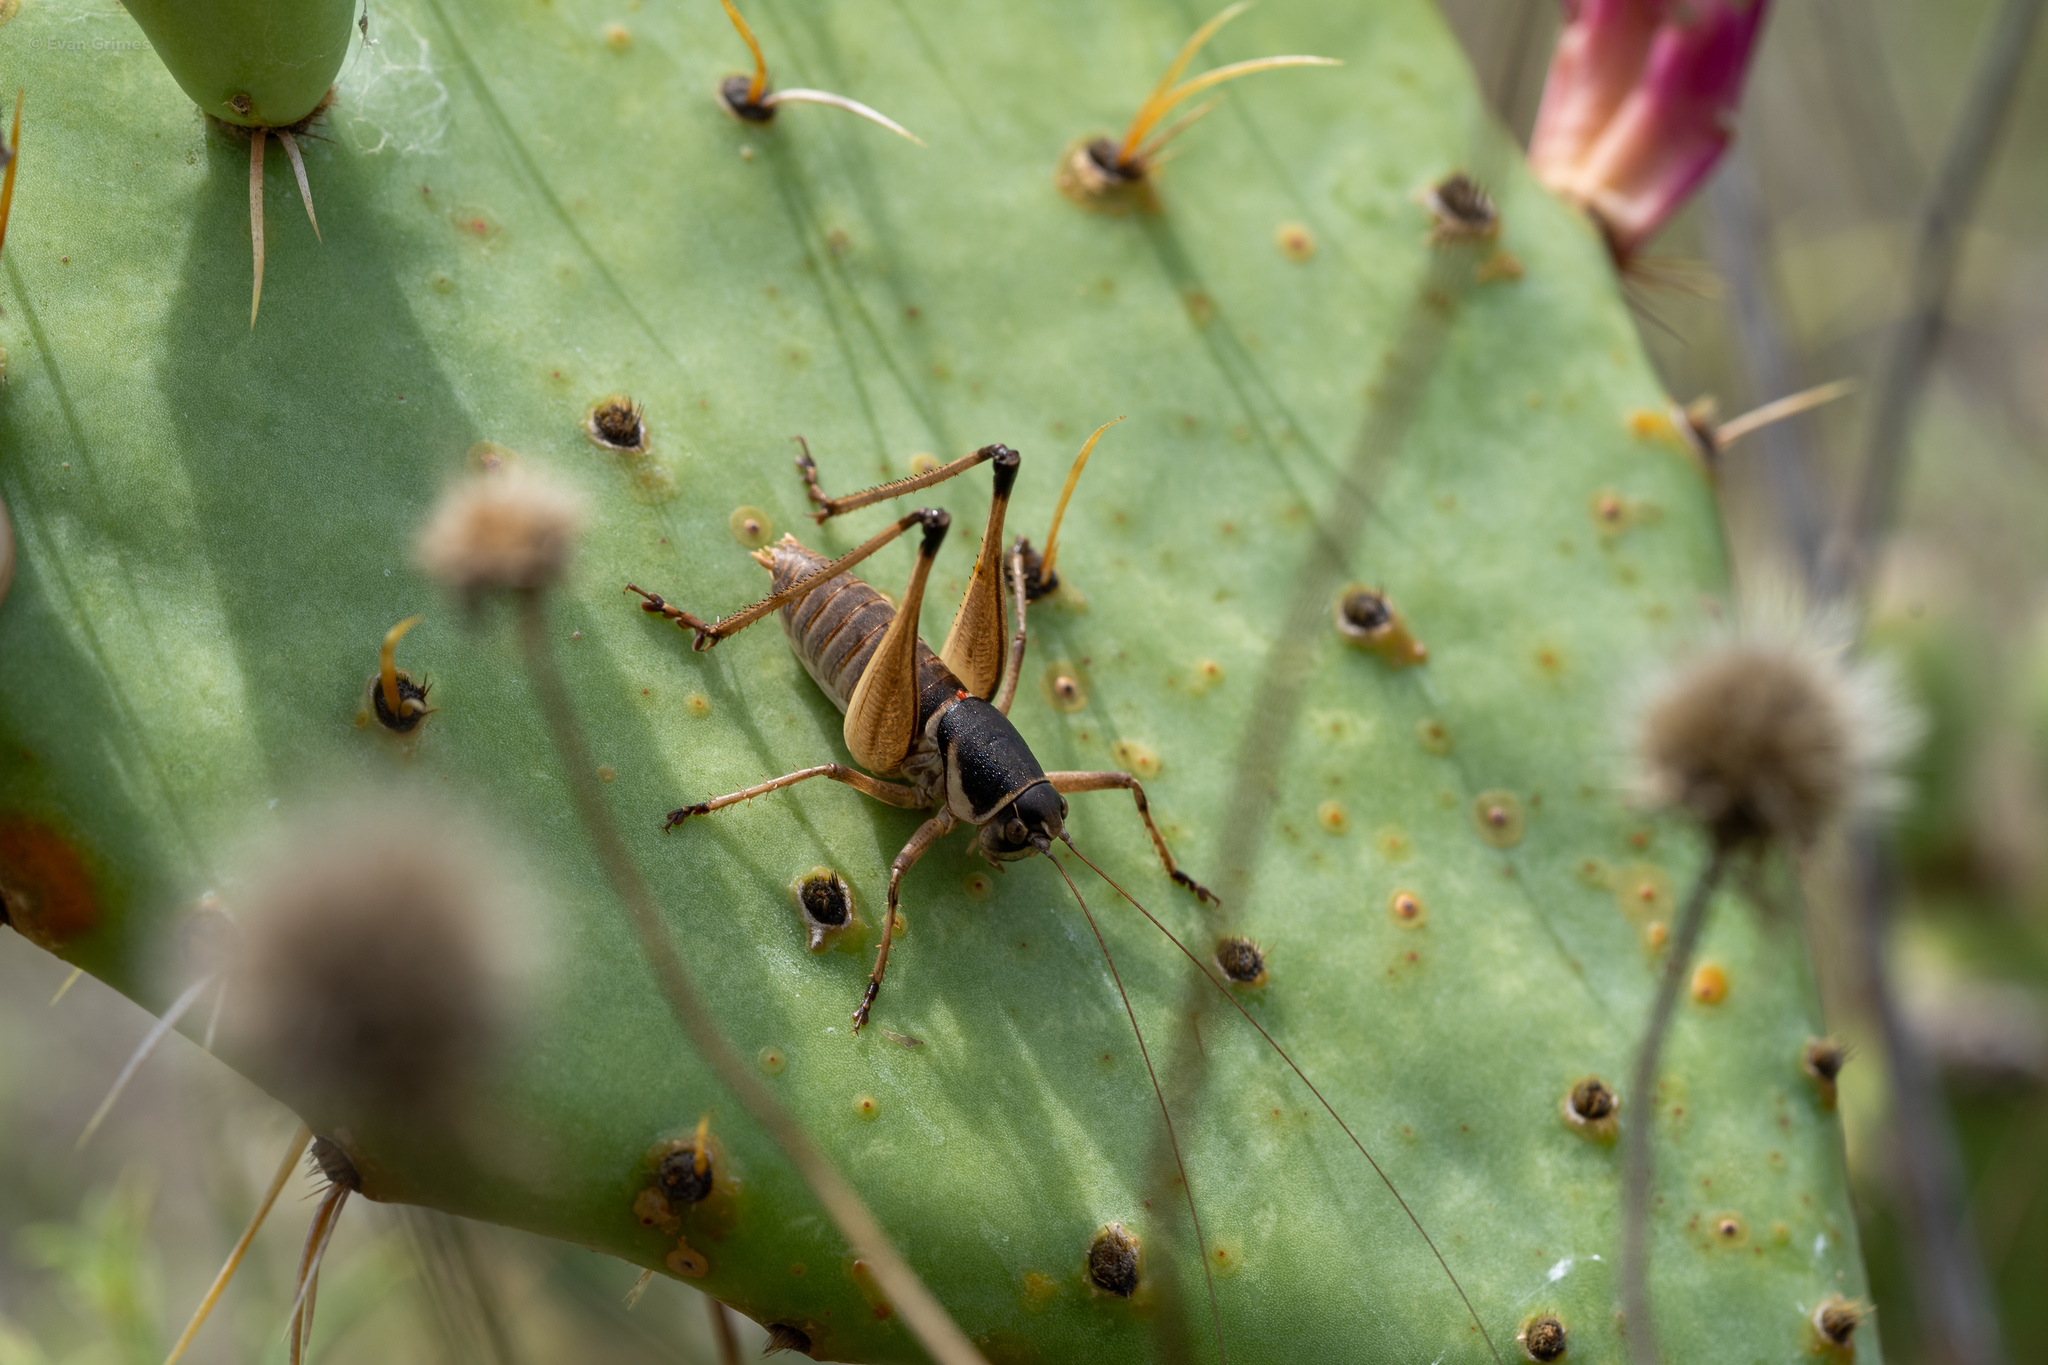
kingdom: Animalia
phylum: Arthropoda
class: Insecta
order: Orthoptera
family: Tettigoniidae
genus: Pediodectes
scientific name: Pediodectes bruneri
